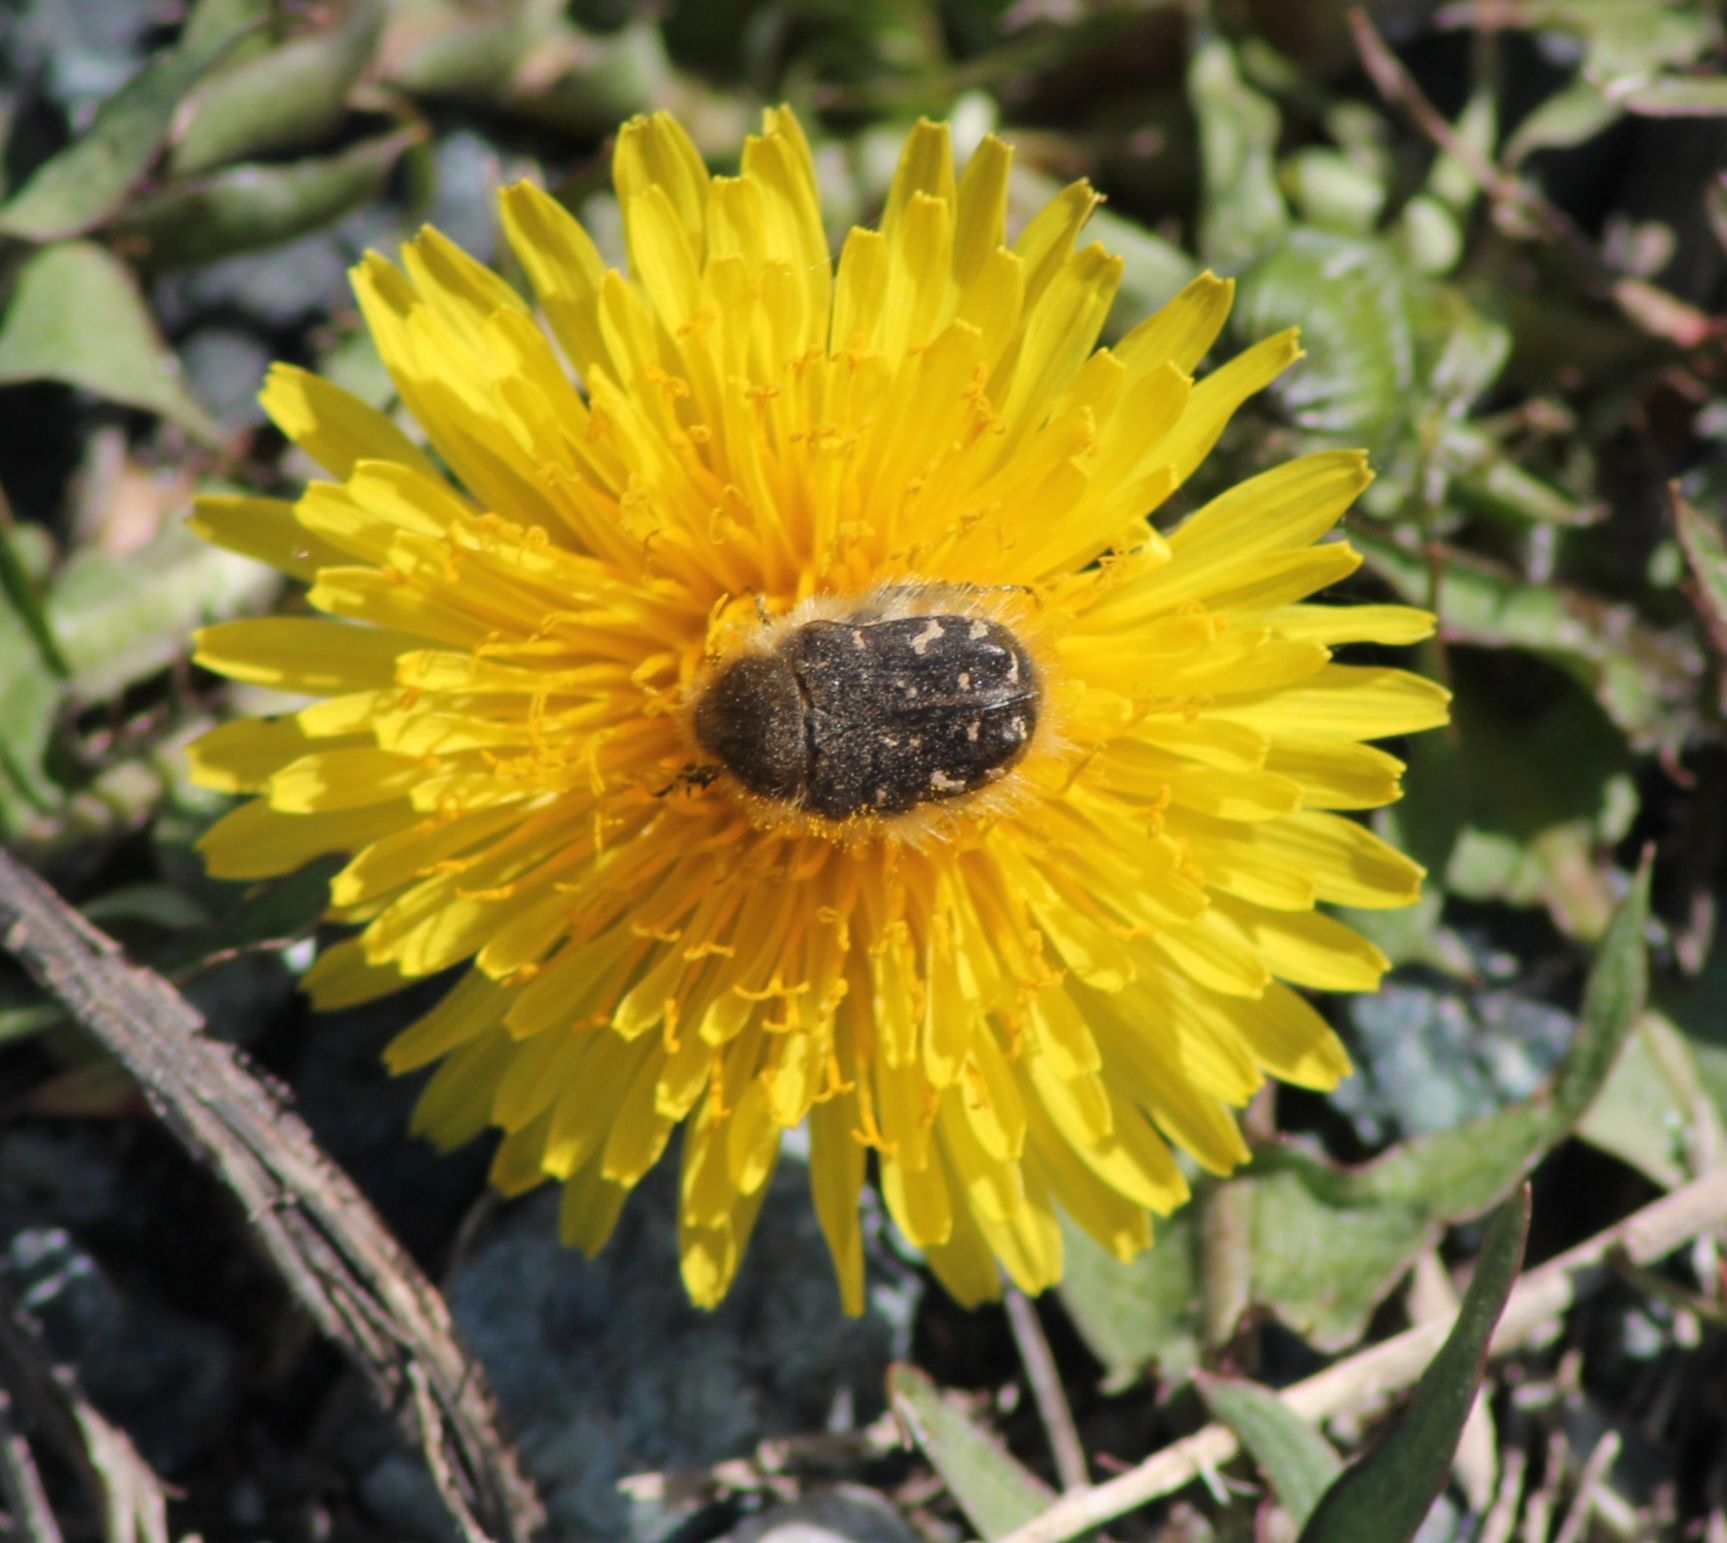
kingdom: Animalia
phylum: Arthropoda
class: Insecta
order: Coleoptera
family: Scarabaeidae
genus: Tropinota
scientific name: Tropinota hirta
